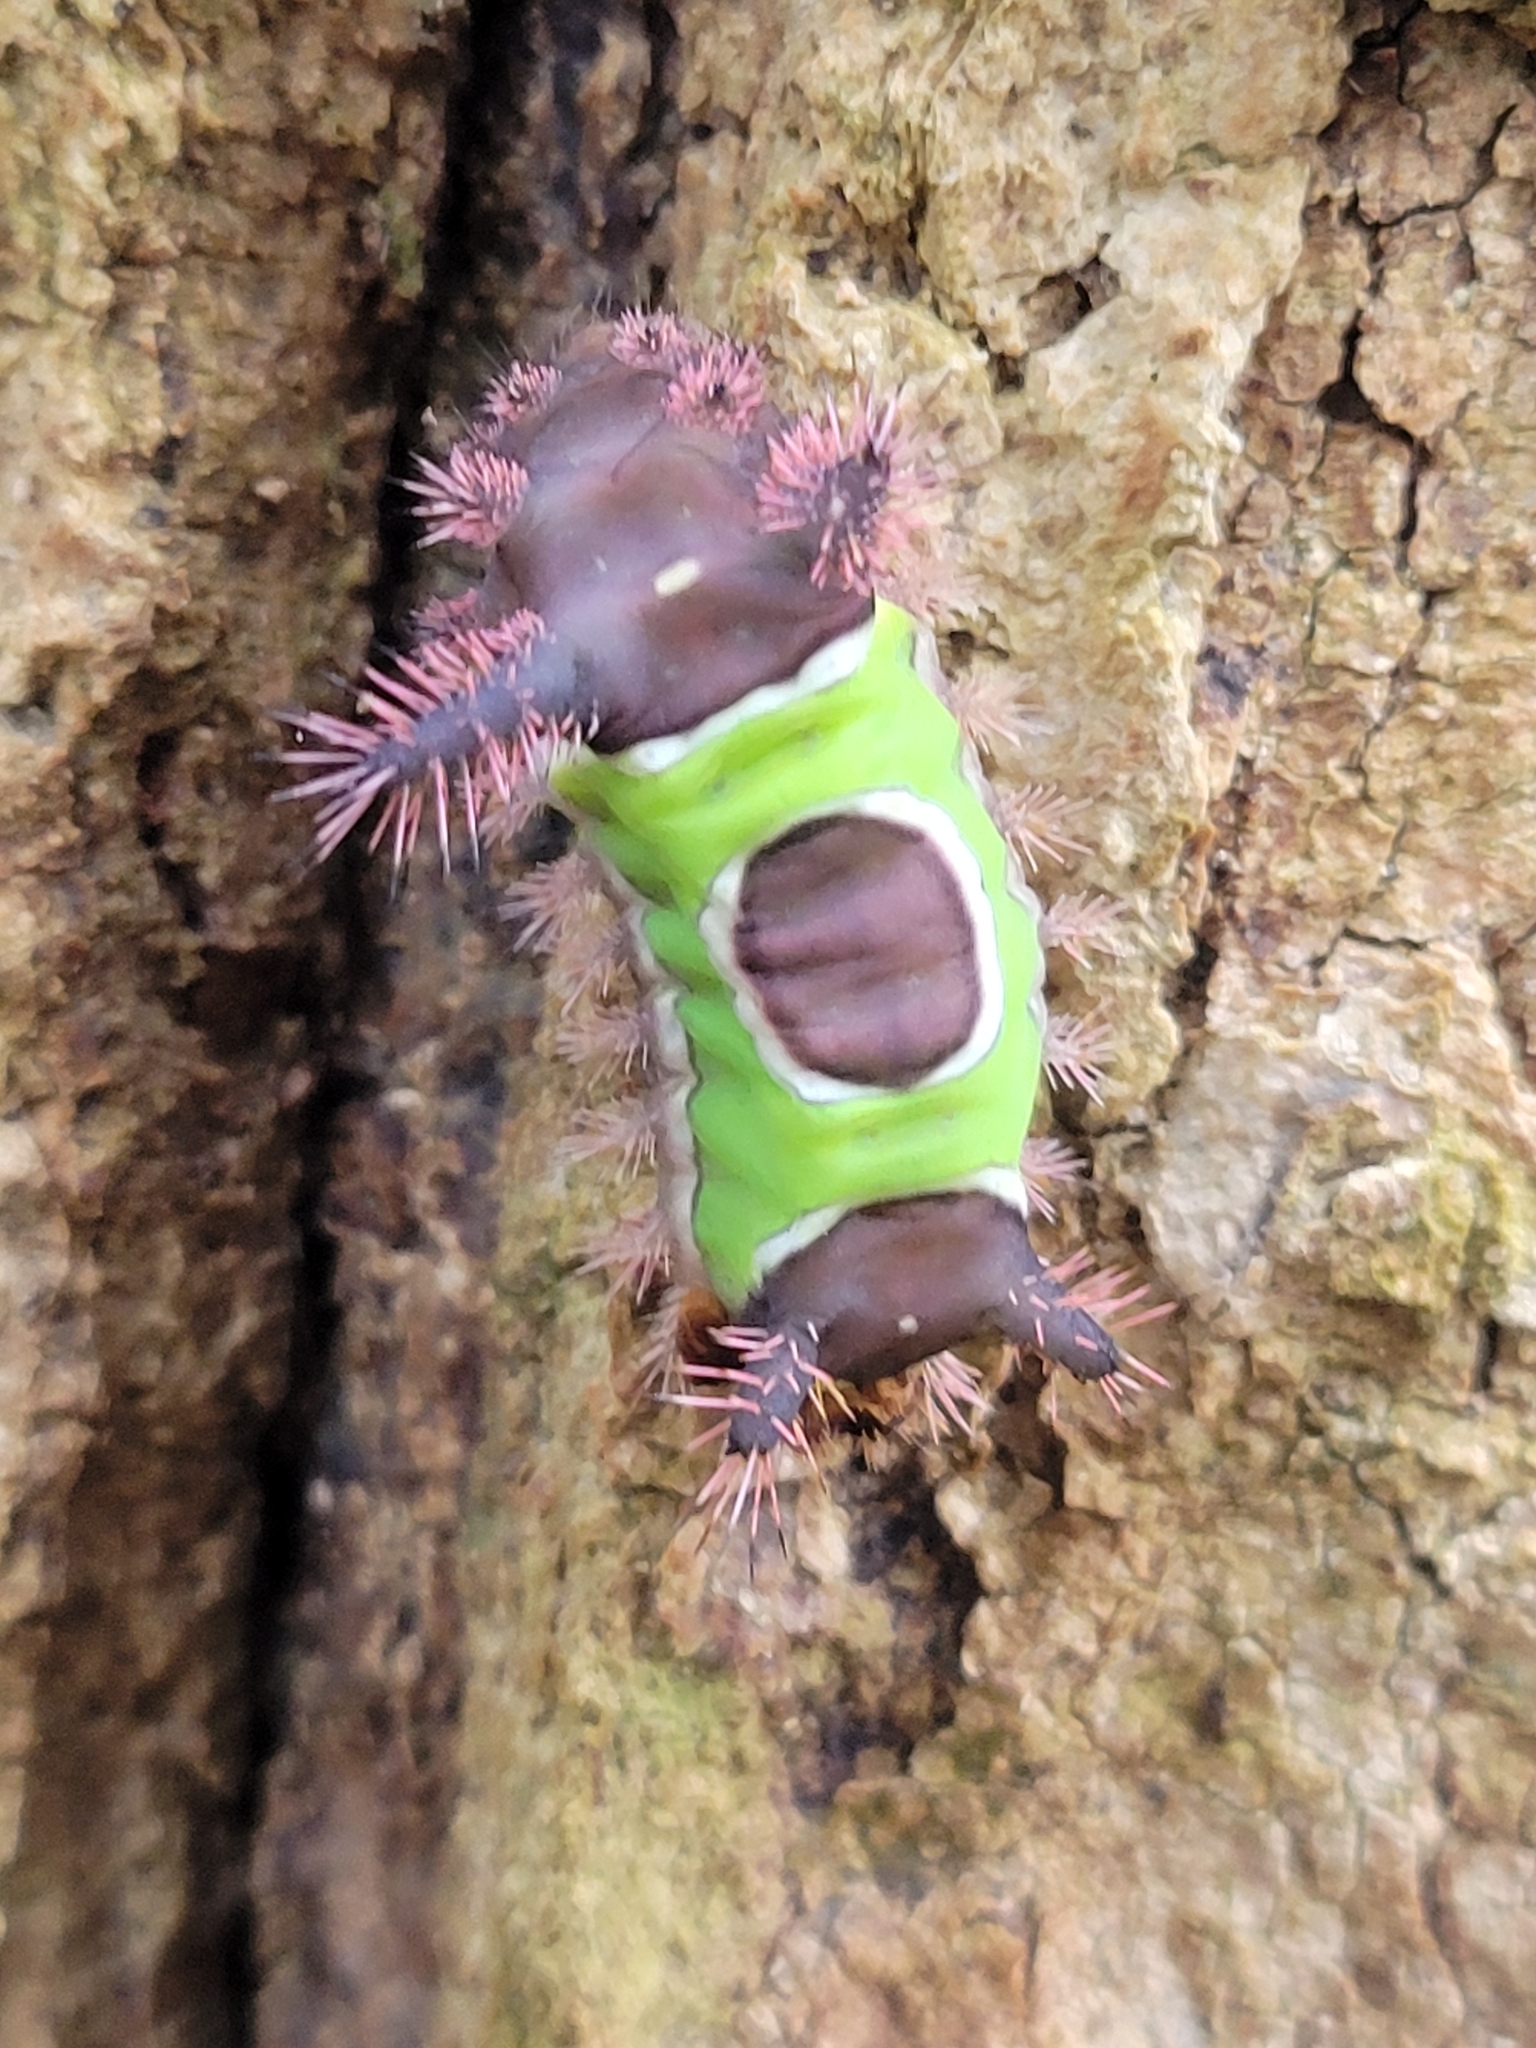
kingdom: Animalia
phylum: Arthropoda
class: Insecta
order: Lepidoptera
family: Limacodidae
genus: Acharia
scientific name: Acharia stimulea
